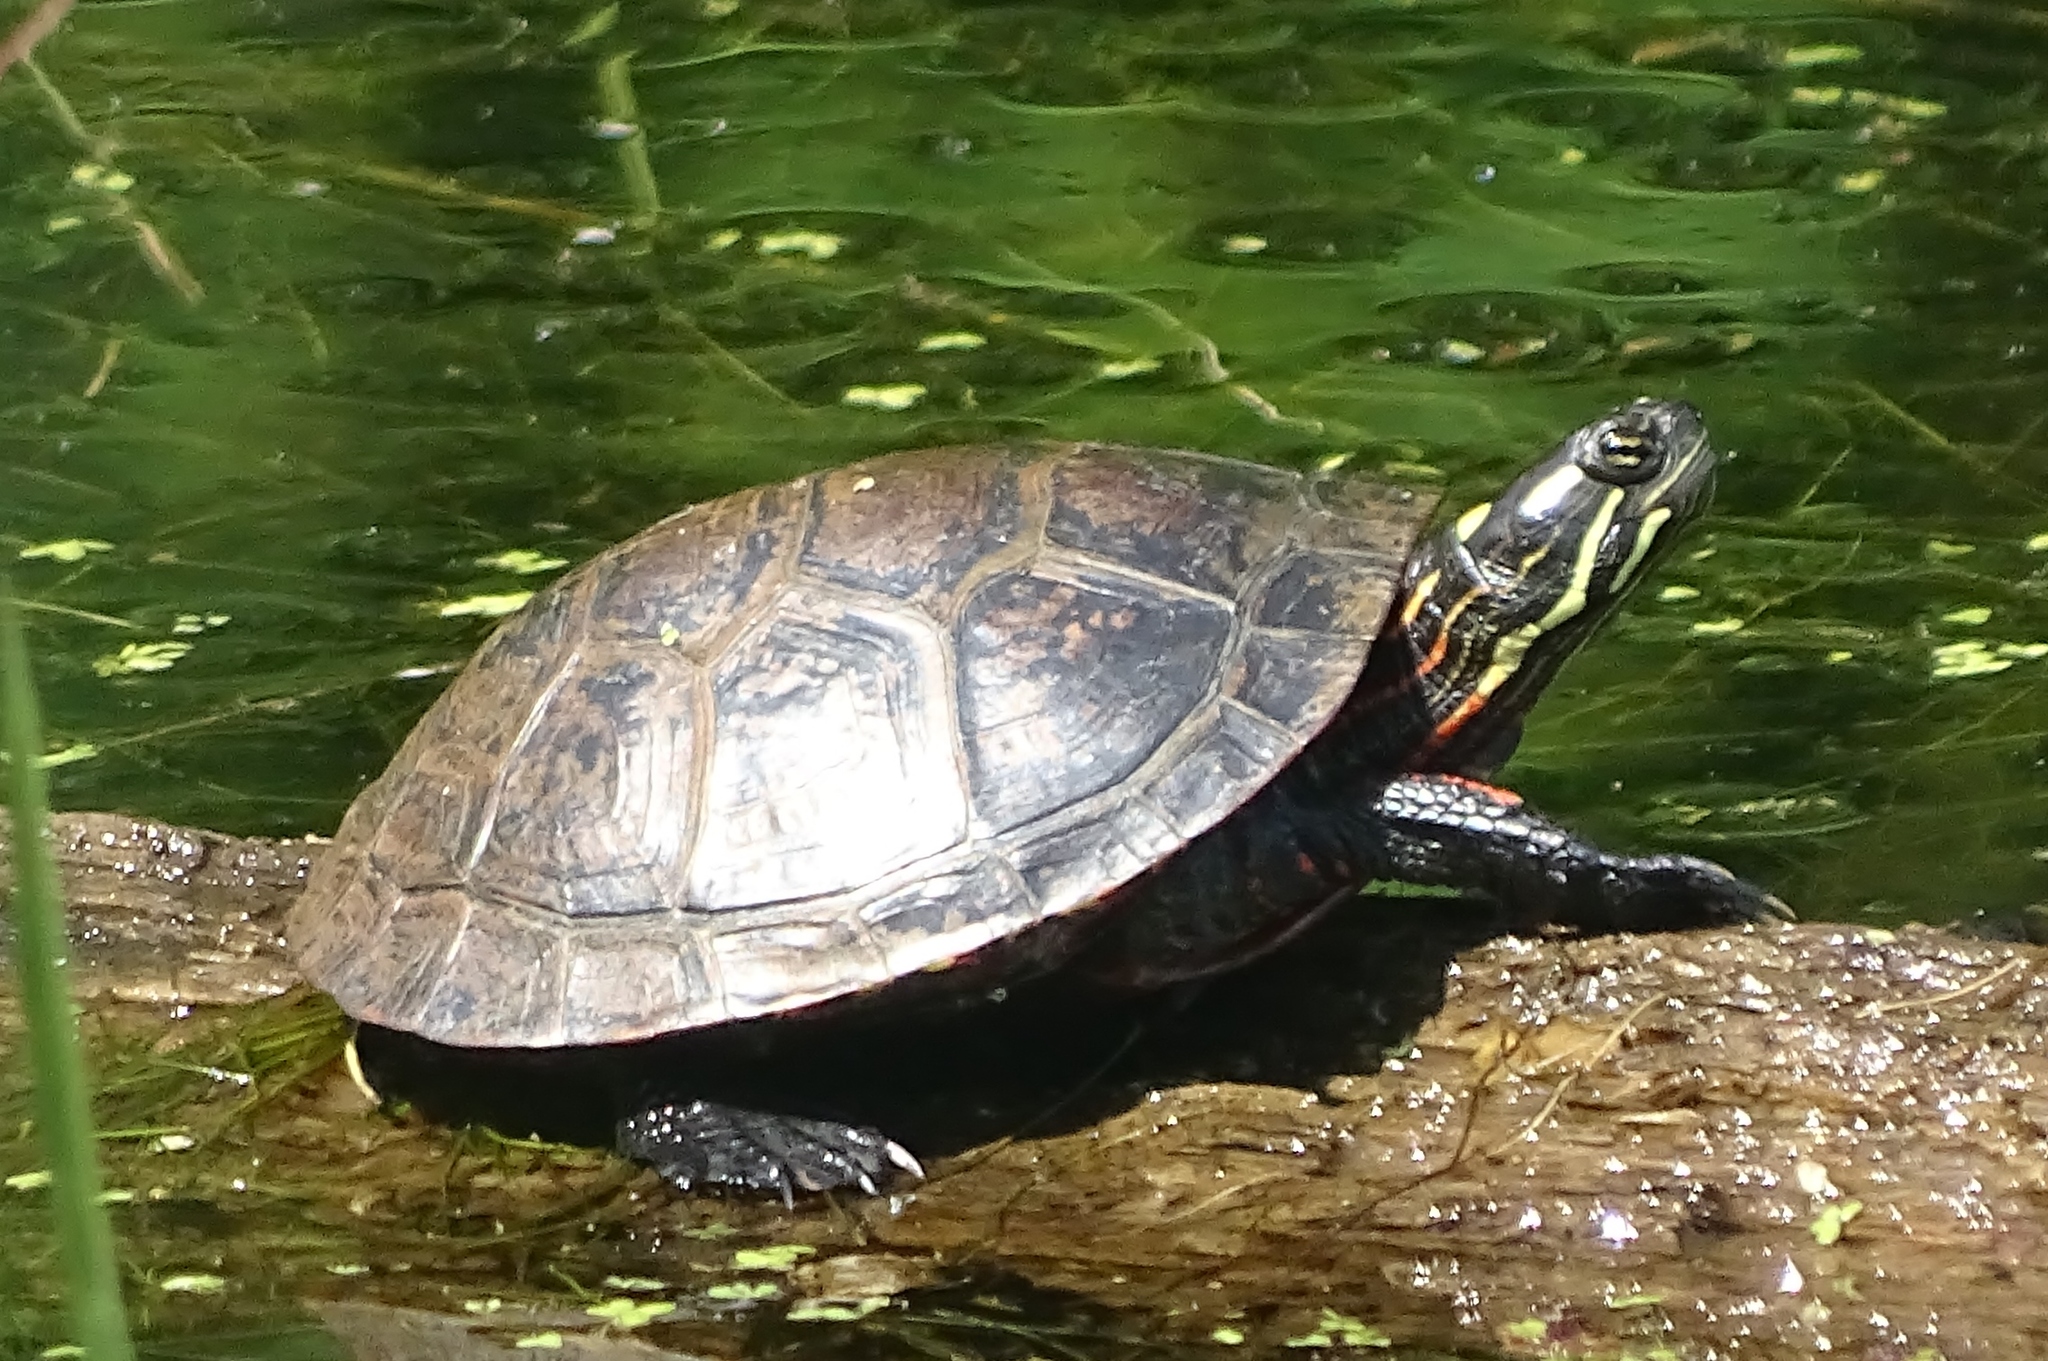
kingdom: Animalia
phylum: Chordata
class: Testudines
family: Emydidae
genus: Chrysemys
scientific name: Chrysemys picta
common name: Painted turtle
